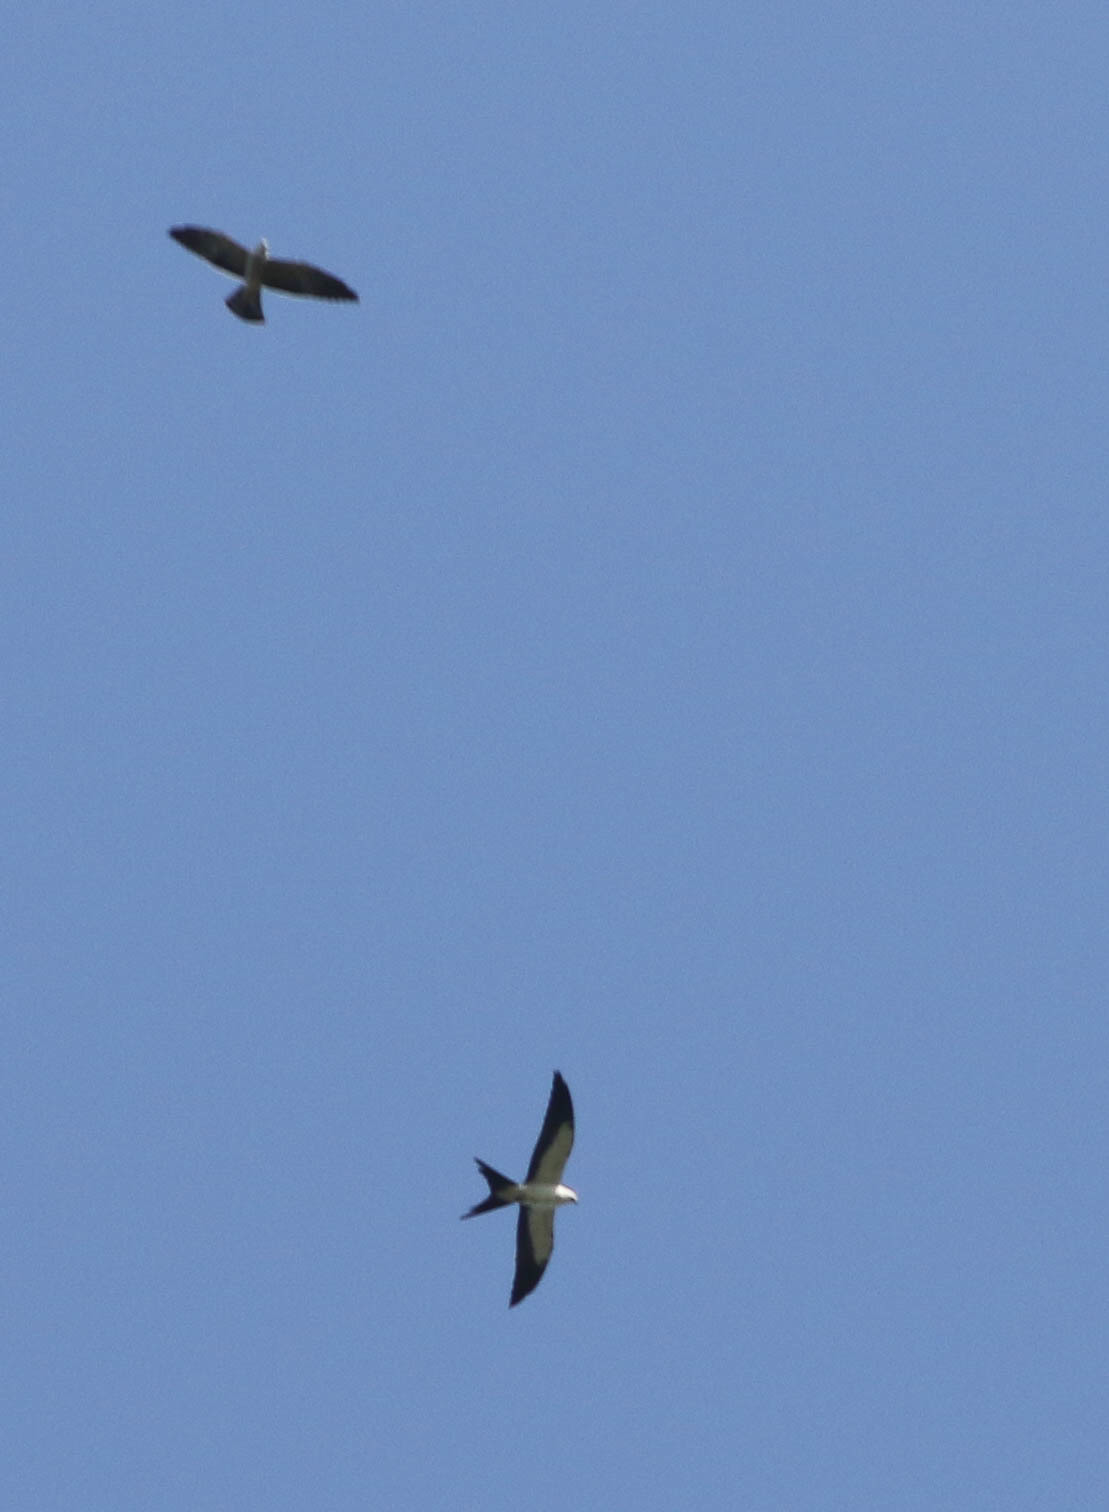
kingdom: Animalia
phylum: Chordata
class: Aves
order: Accipitriformes
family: Accipitridae
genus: Ictinia
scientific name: Ictinia mississippiensis
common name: Mississippi kite
